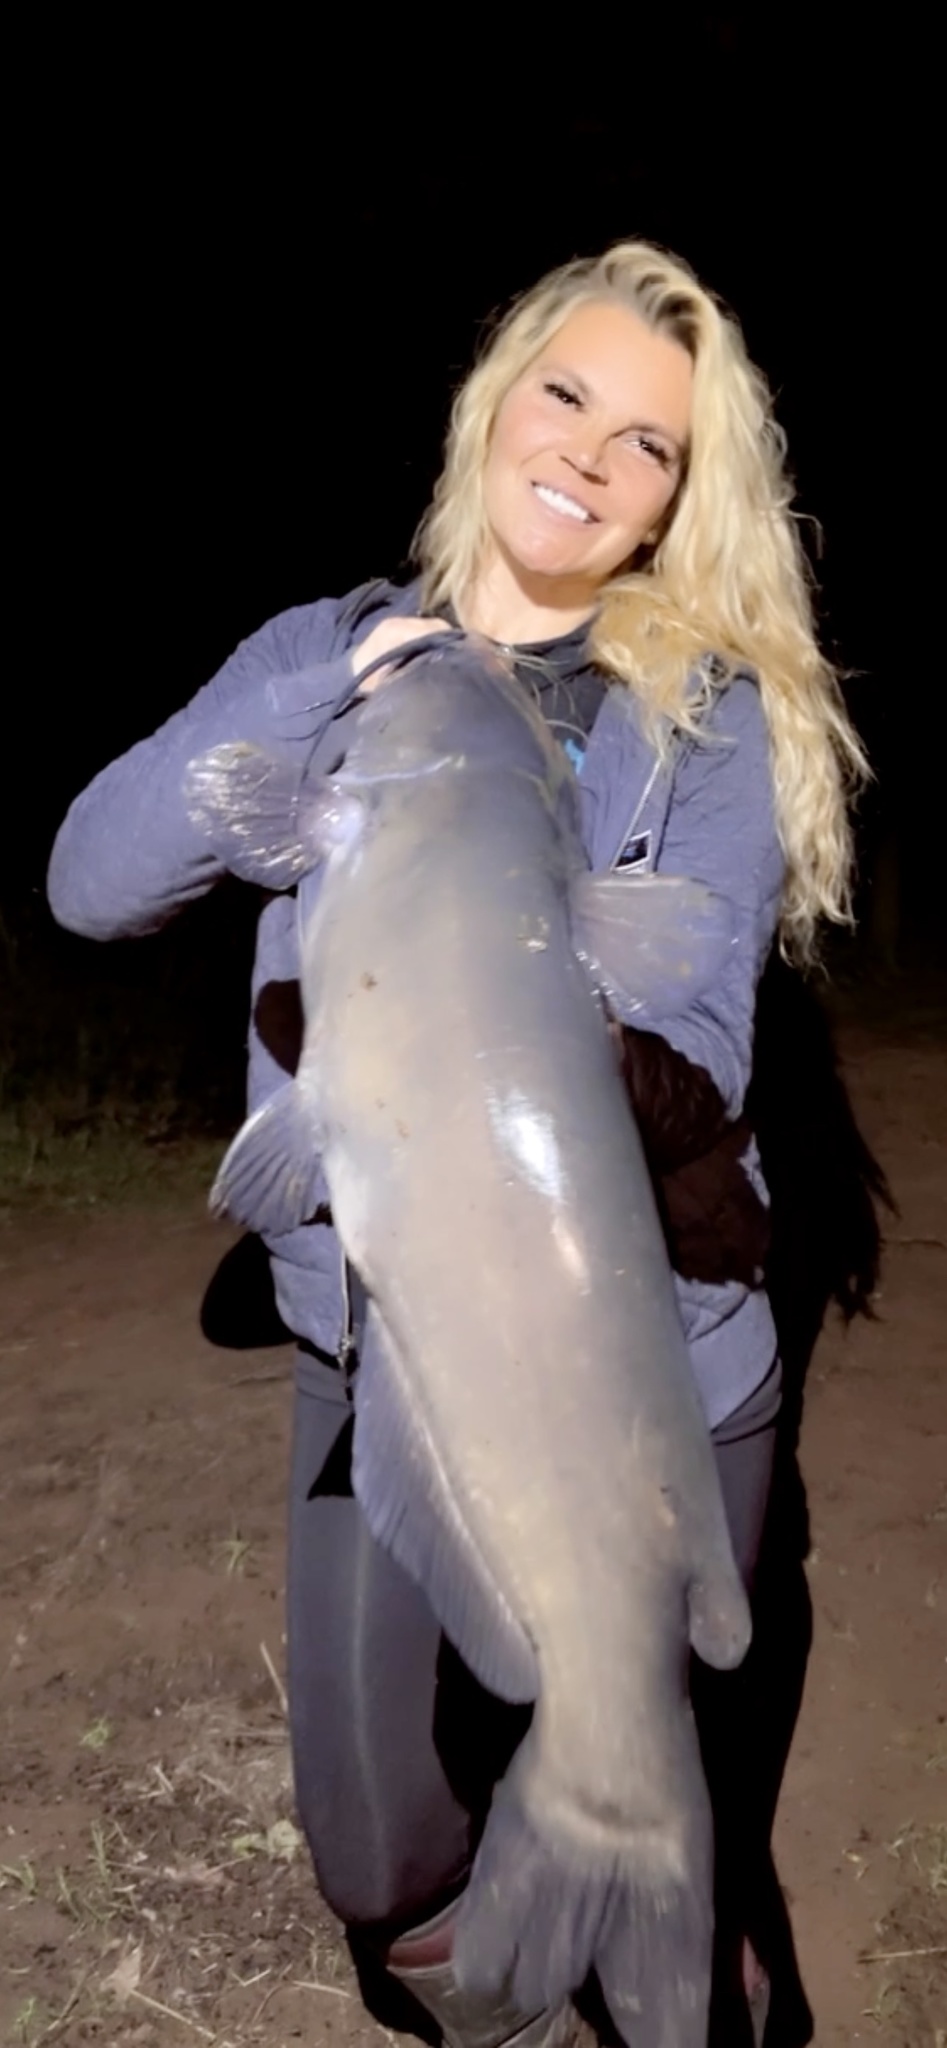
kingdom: Animalia
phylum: Chordata
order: Siluriformes
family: Ictaluridae
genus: Ictalurus
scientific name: Ictalurus punctatus
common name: Channel catfish
